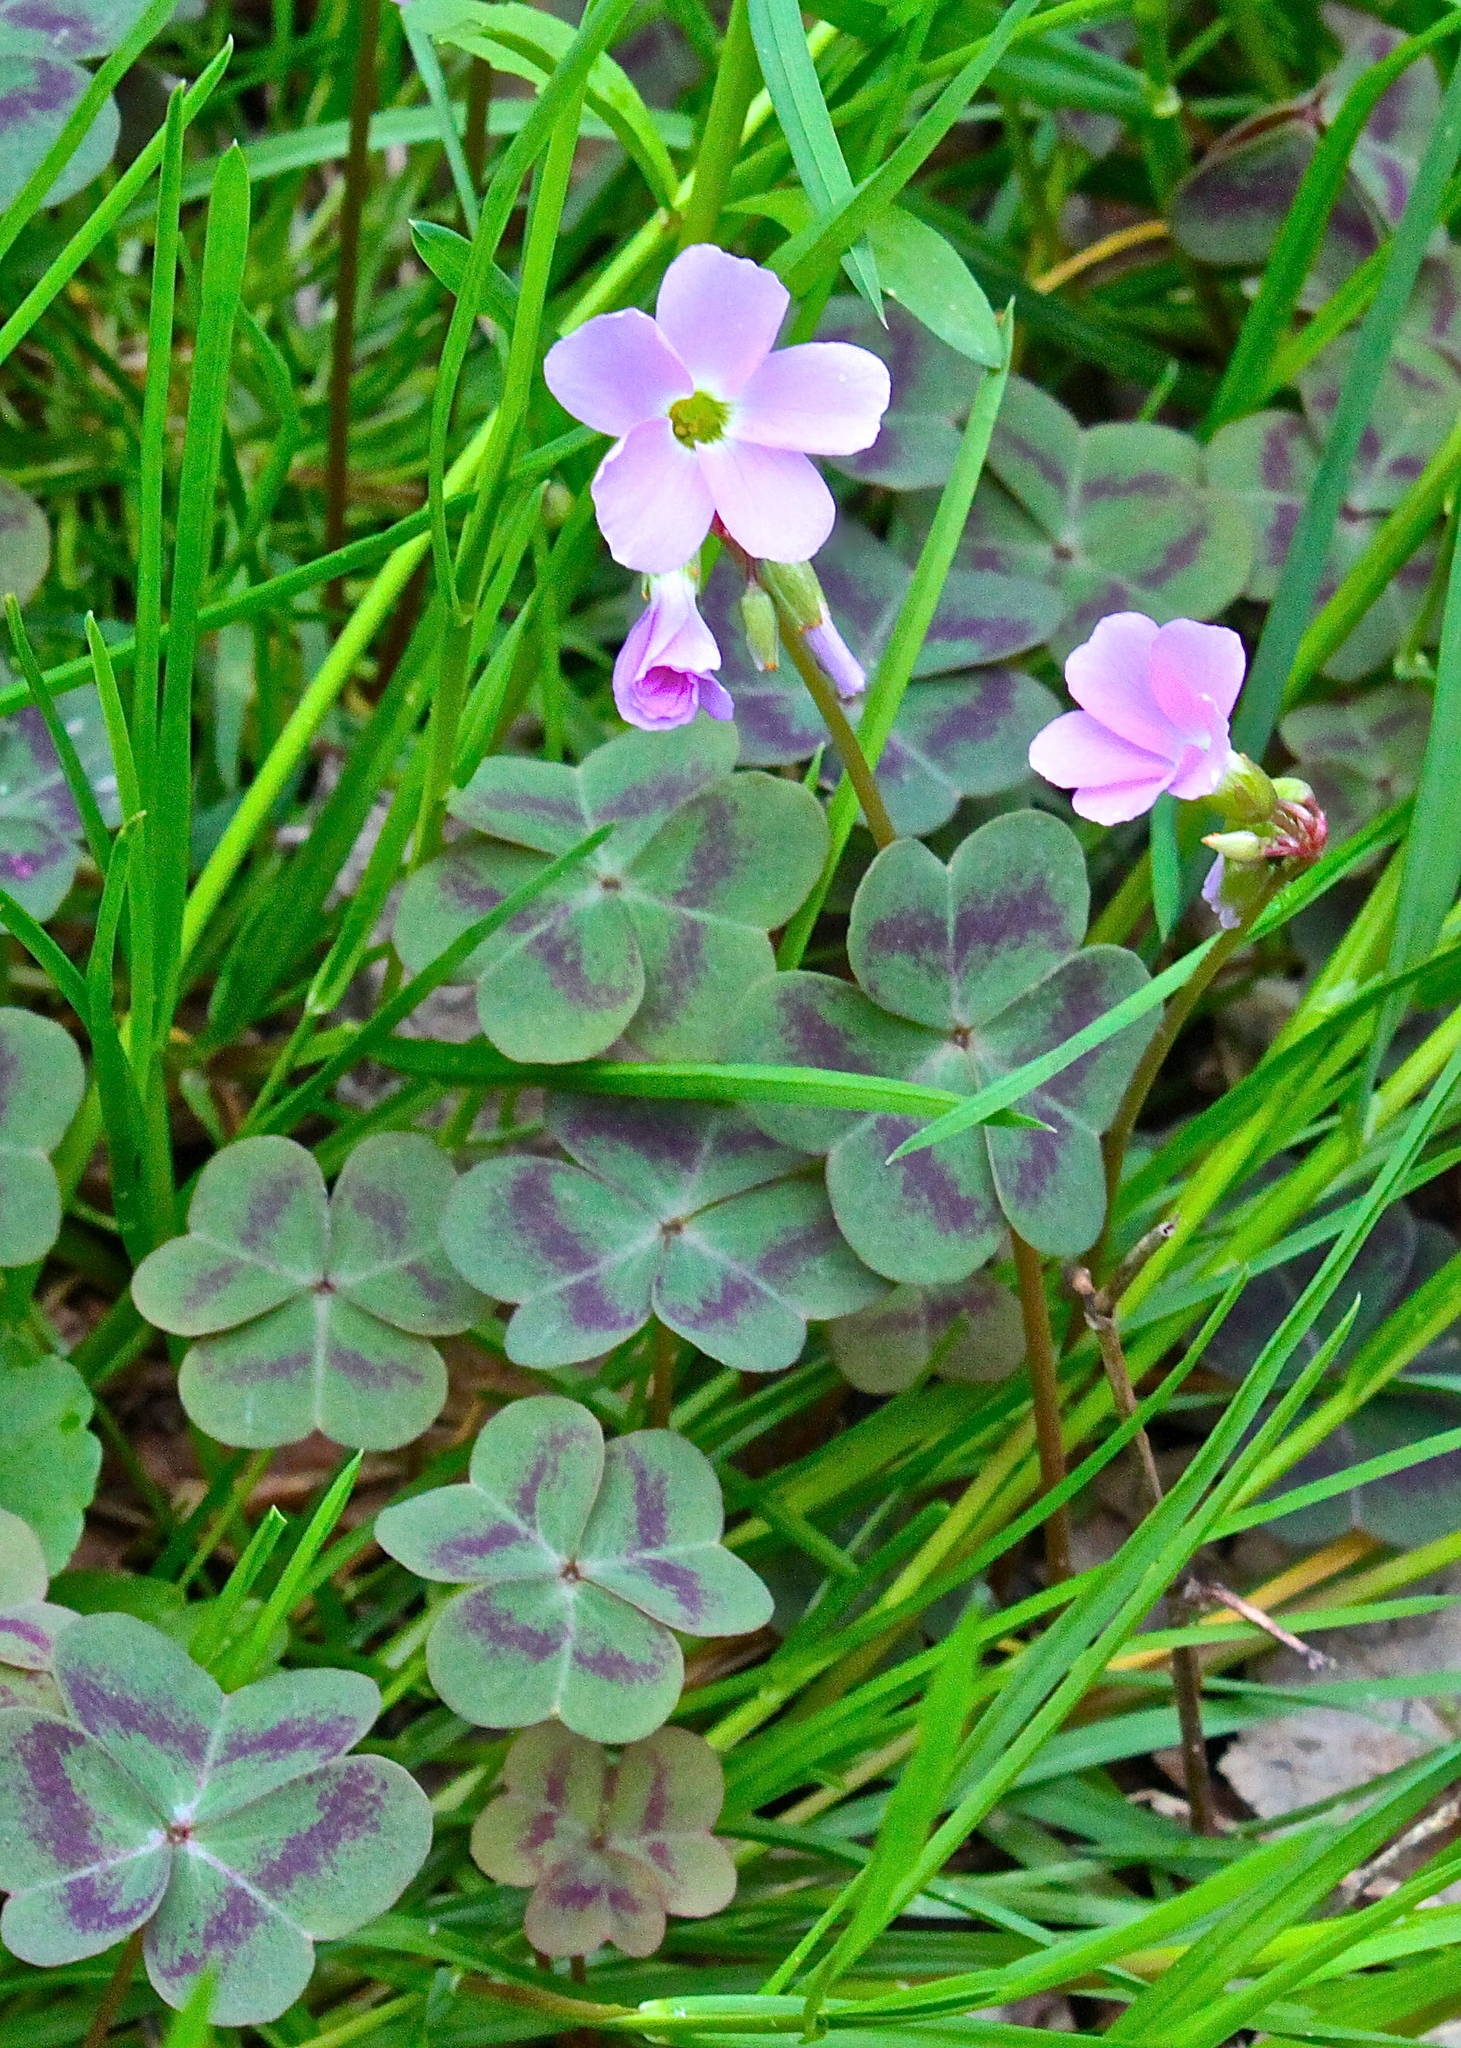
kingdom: Plantae
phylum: Tracheophyta
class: Magnoliopsida
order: Oxalidales
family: Oxalidaceae
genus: Oxalis
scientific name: Oxalis violacea
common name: Violet wood-sorrel
